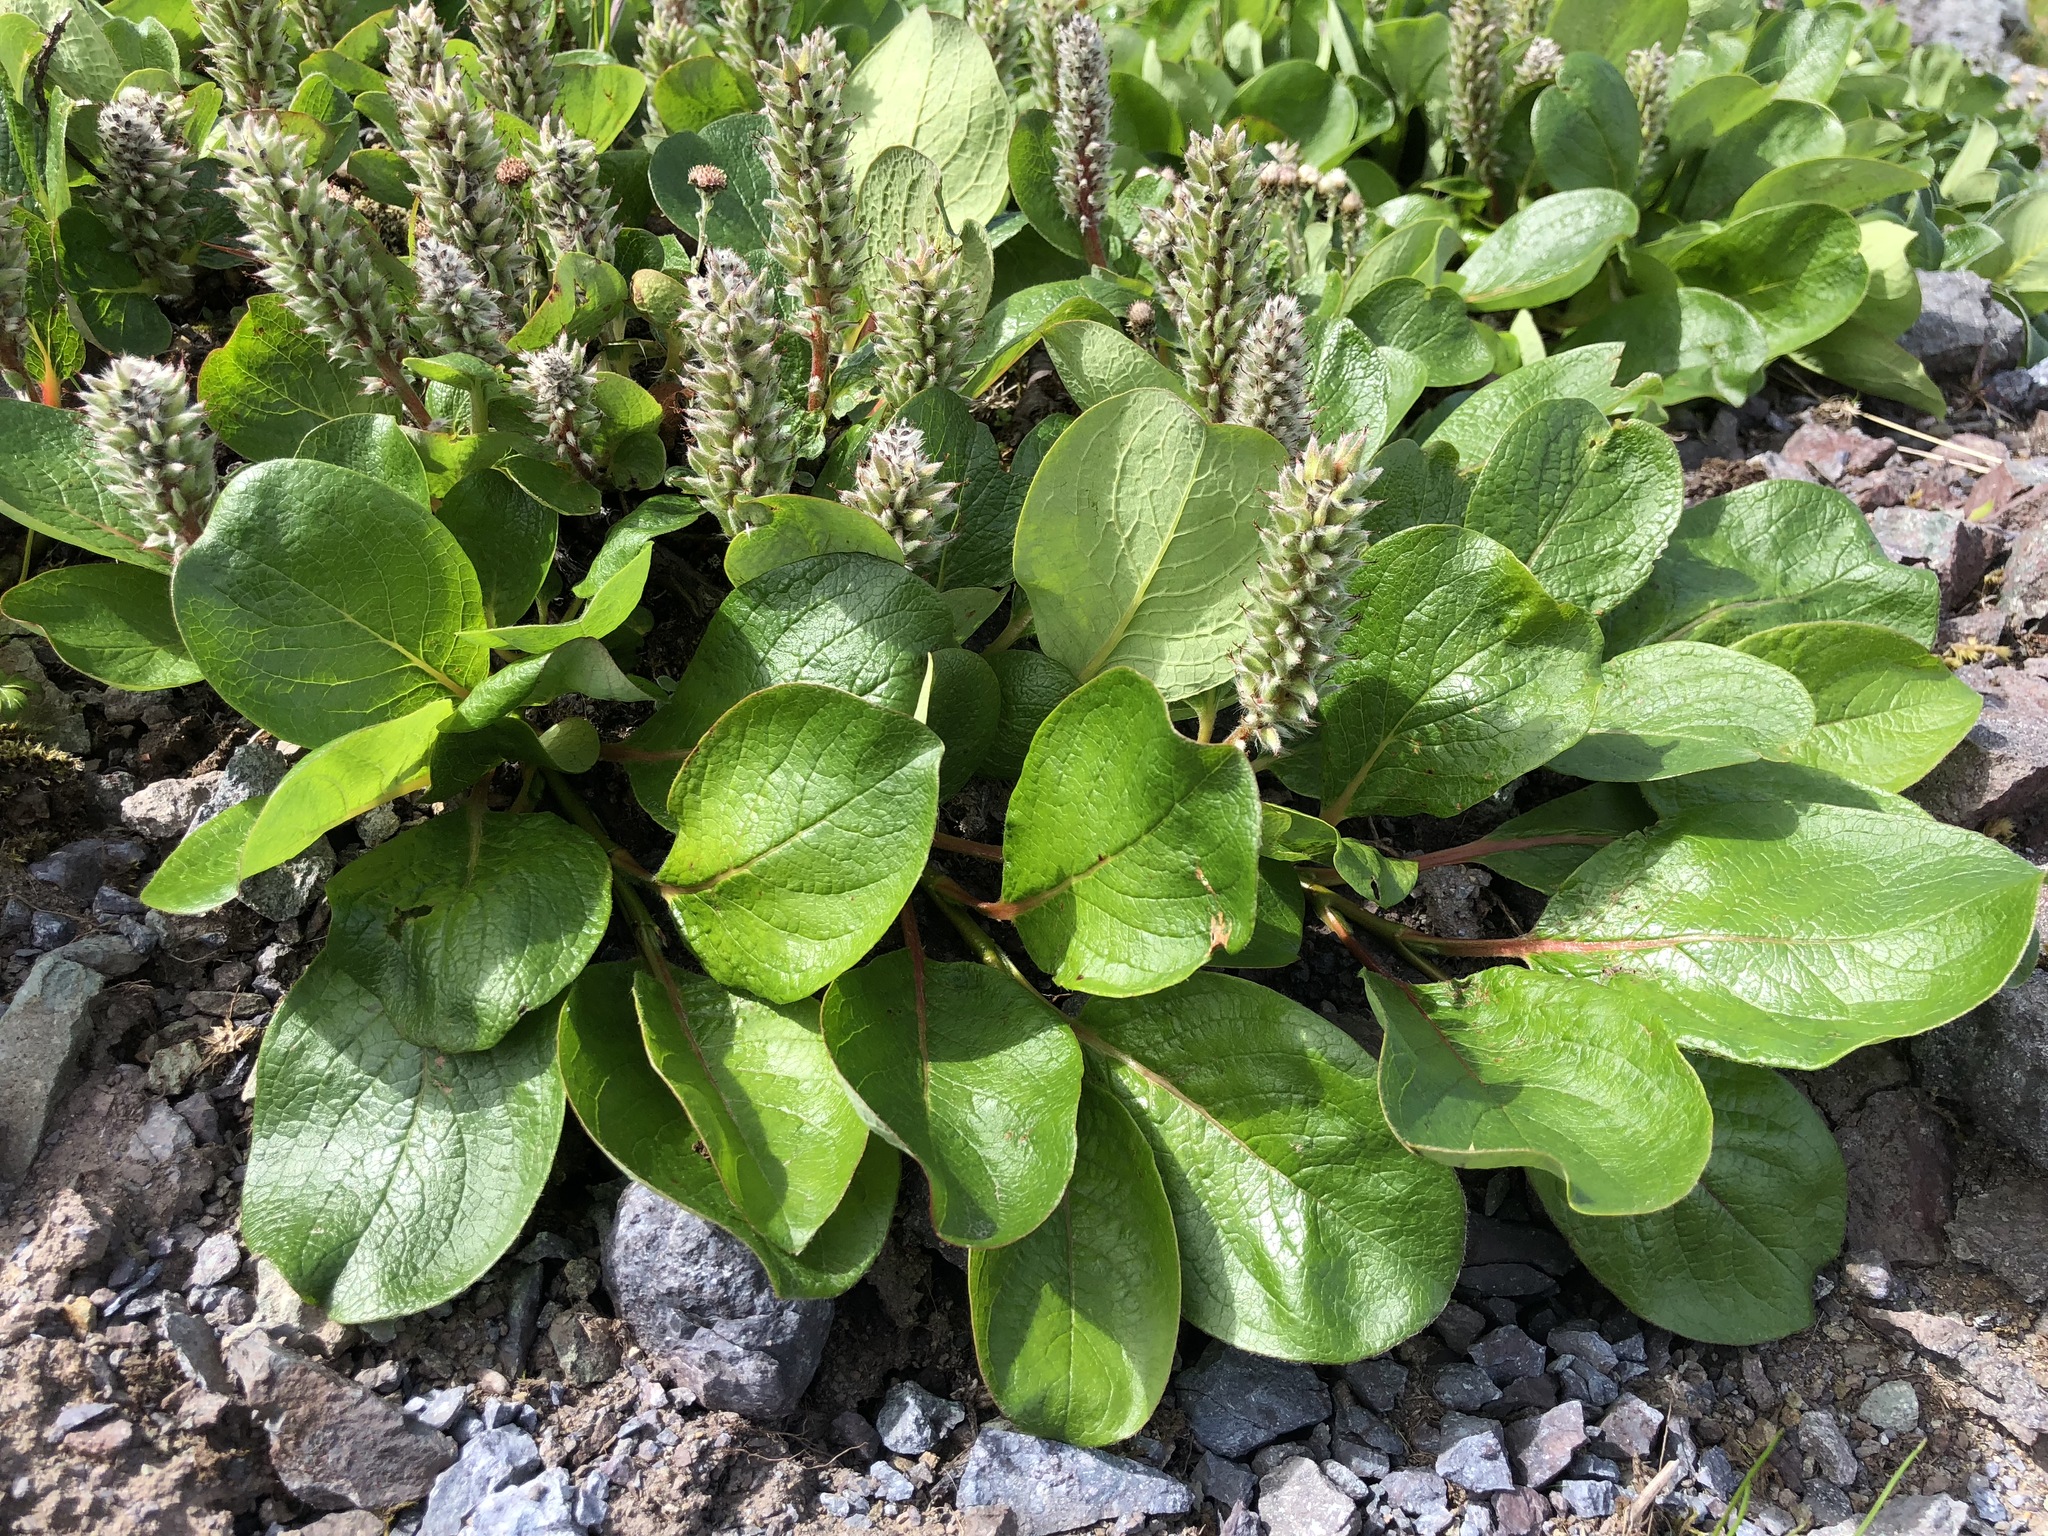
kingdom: Plantae
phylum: Tracheophyta
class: Magnoliopsida
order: Malpighiales
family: Salicaceae
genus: Salix
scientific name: Salix arctica
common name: Arctic willow
